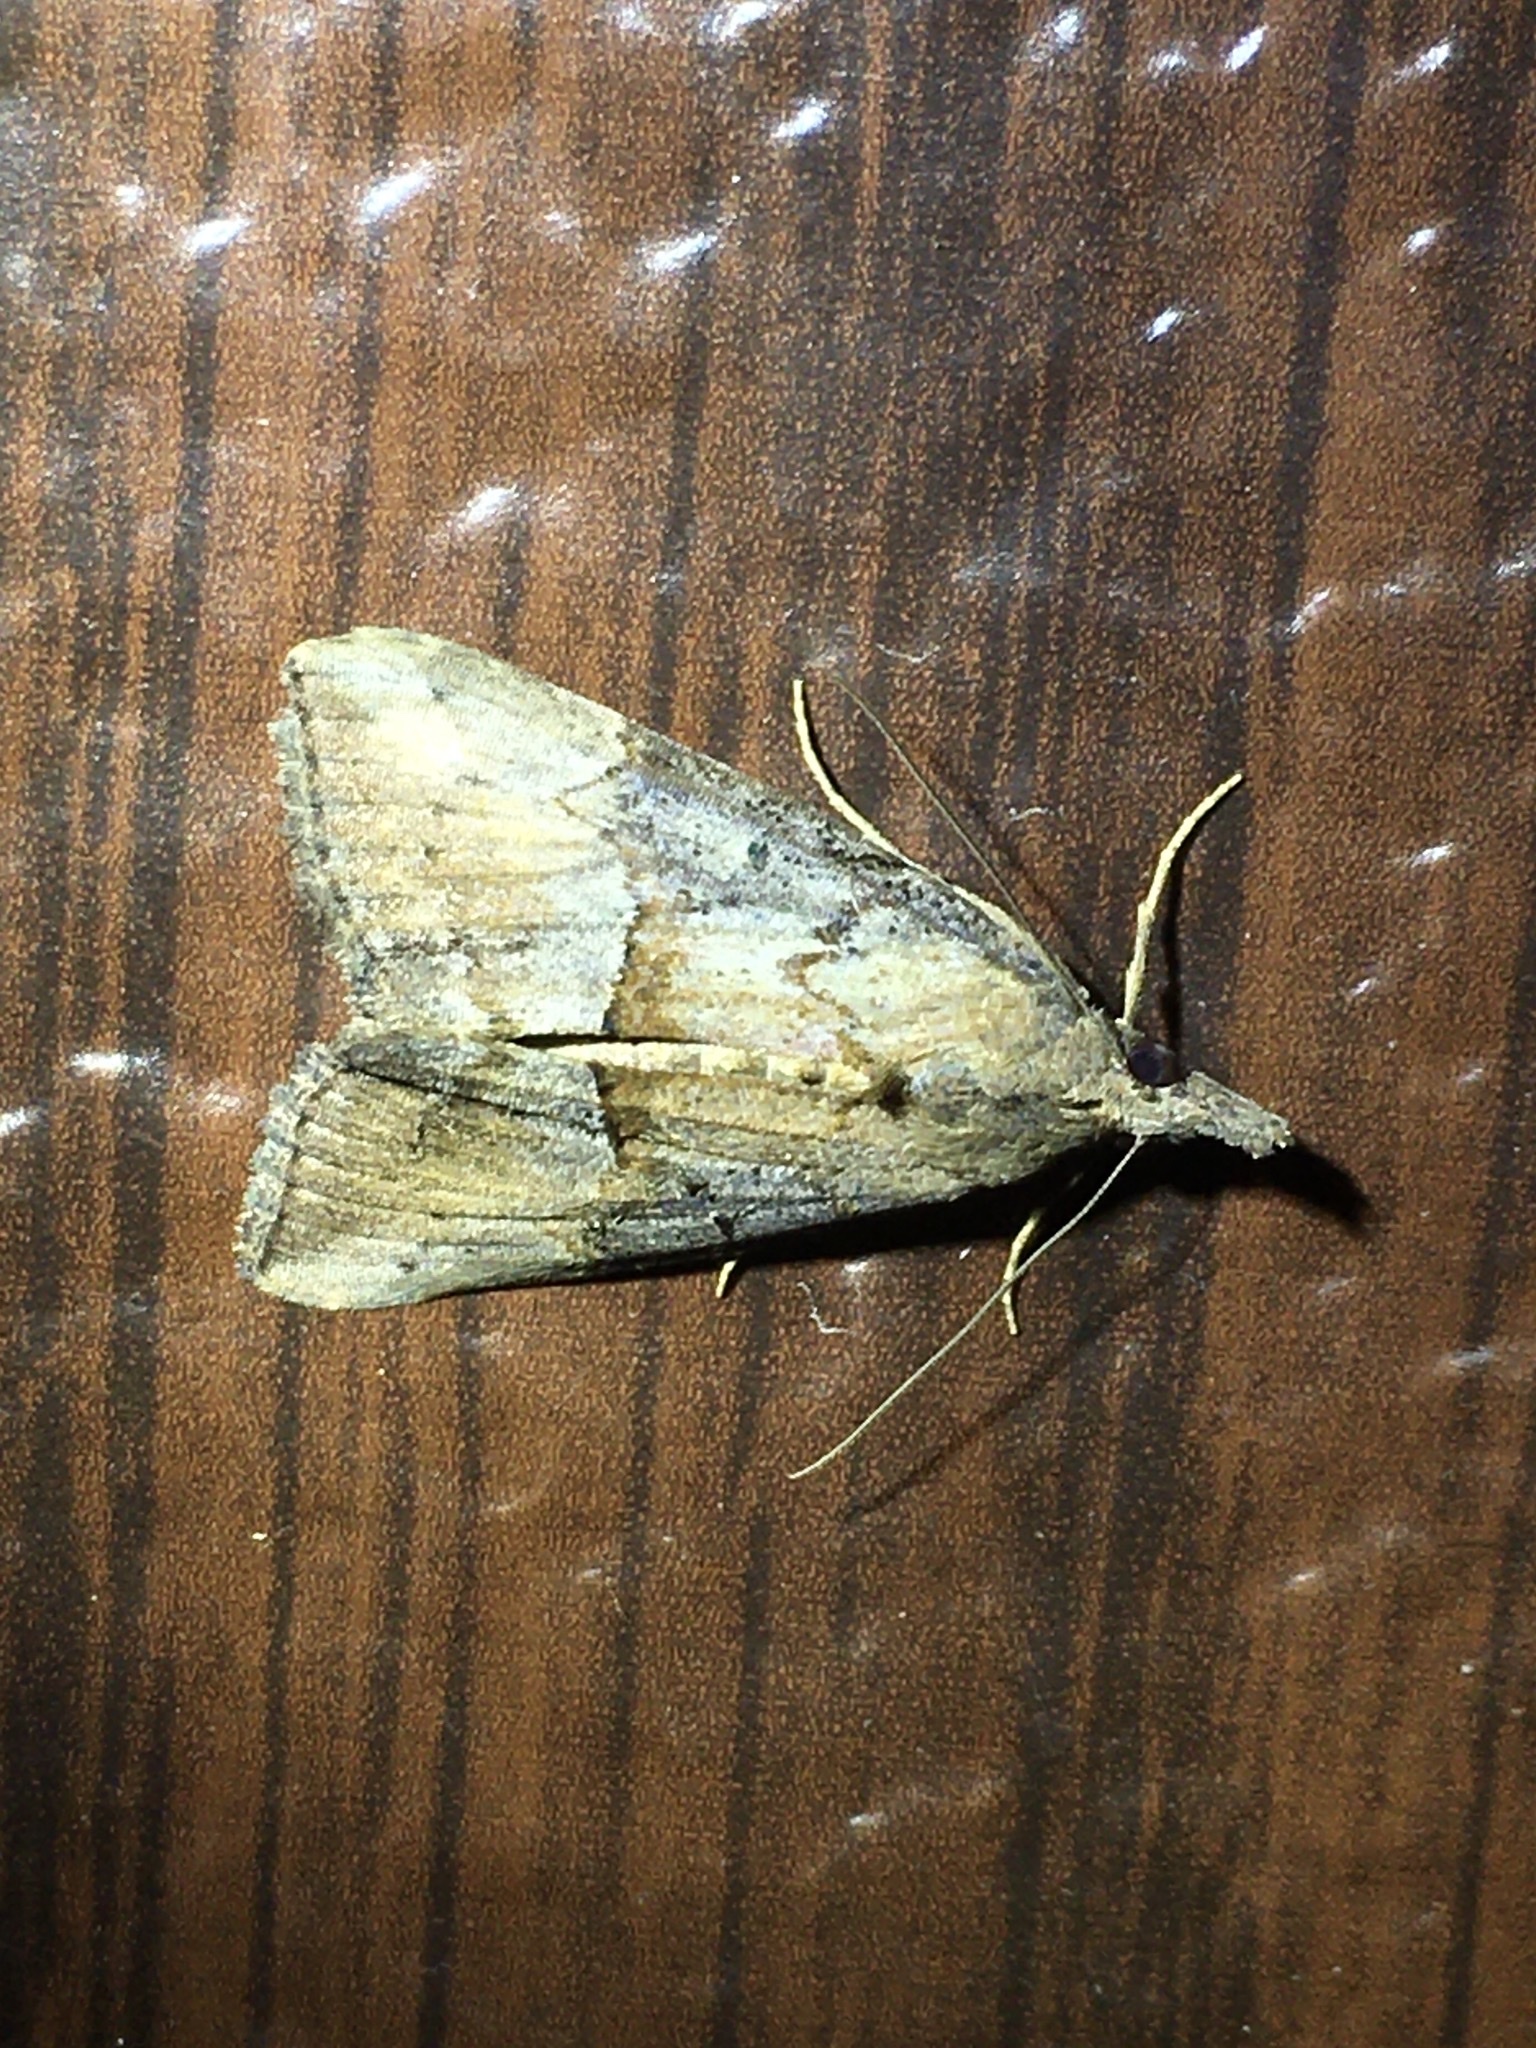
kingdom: Animalia
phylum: Arthropoda
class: Insecta
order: Lepidoptera
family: Erebidae
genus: Hypena
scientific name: Hypena scabra
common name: Green cloverworm
